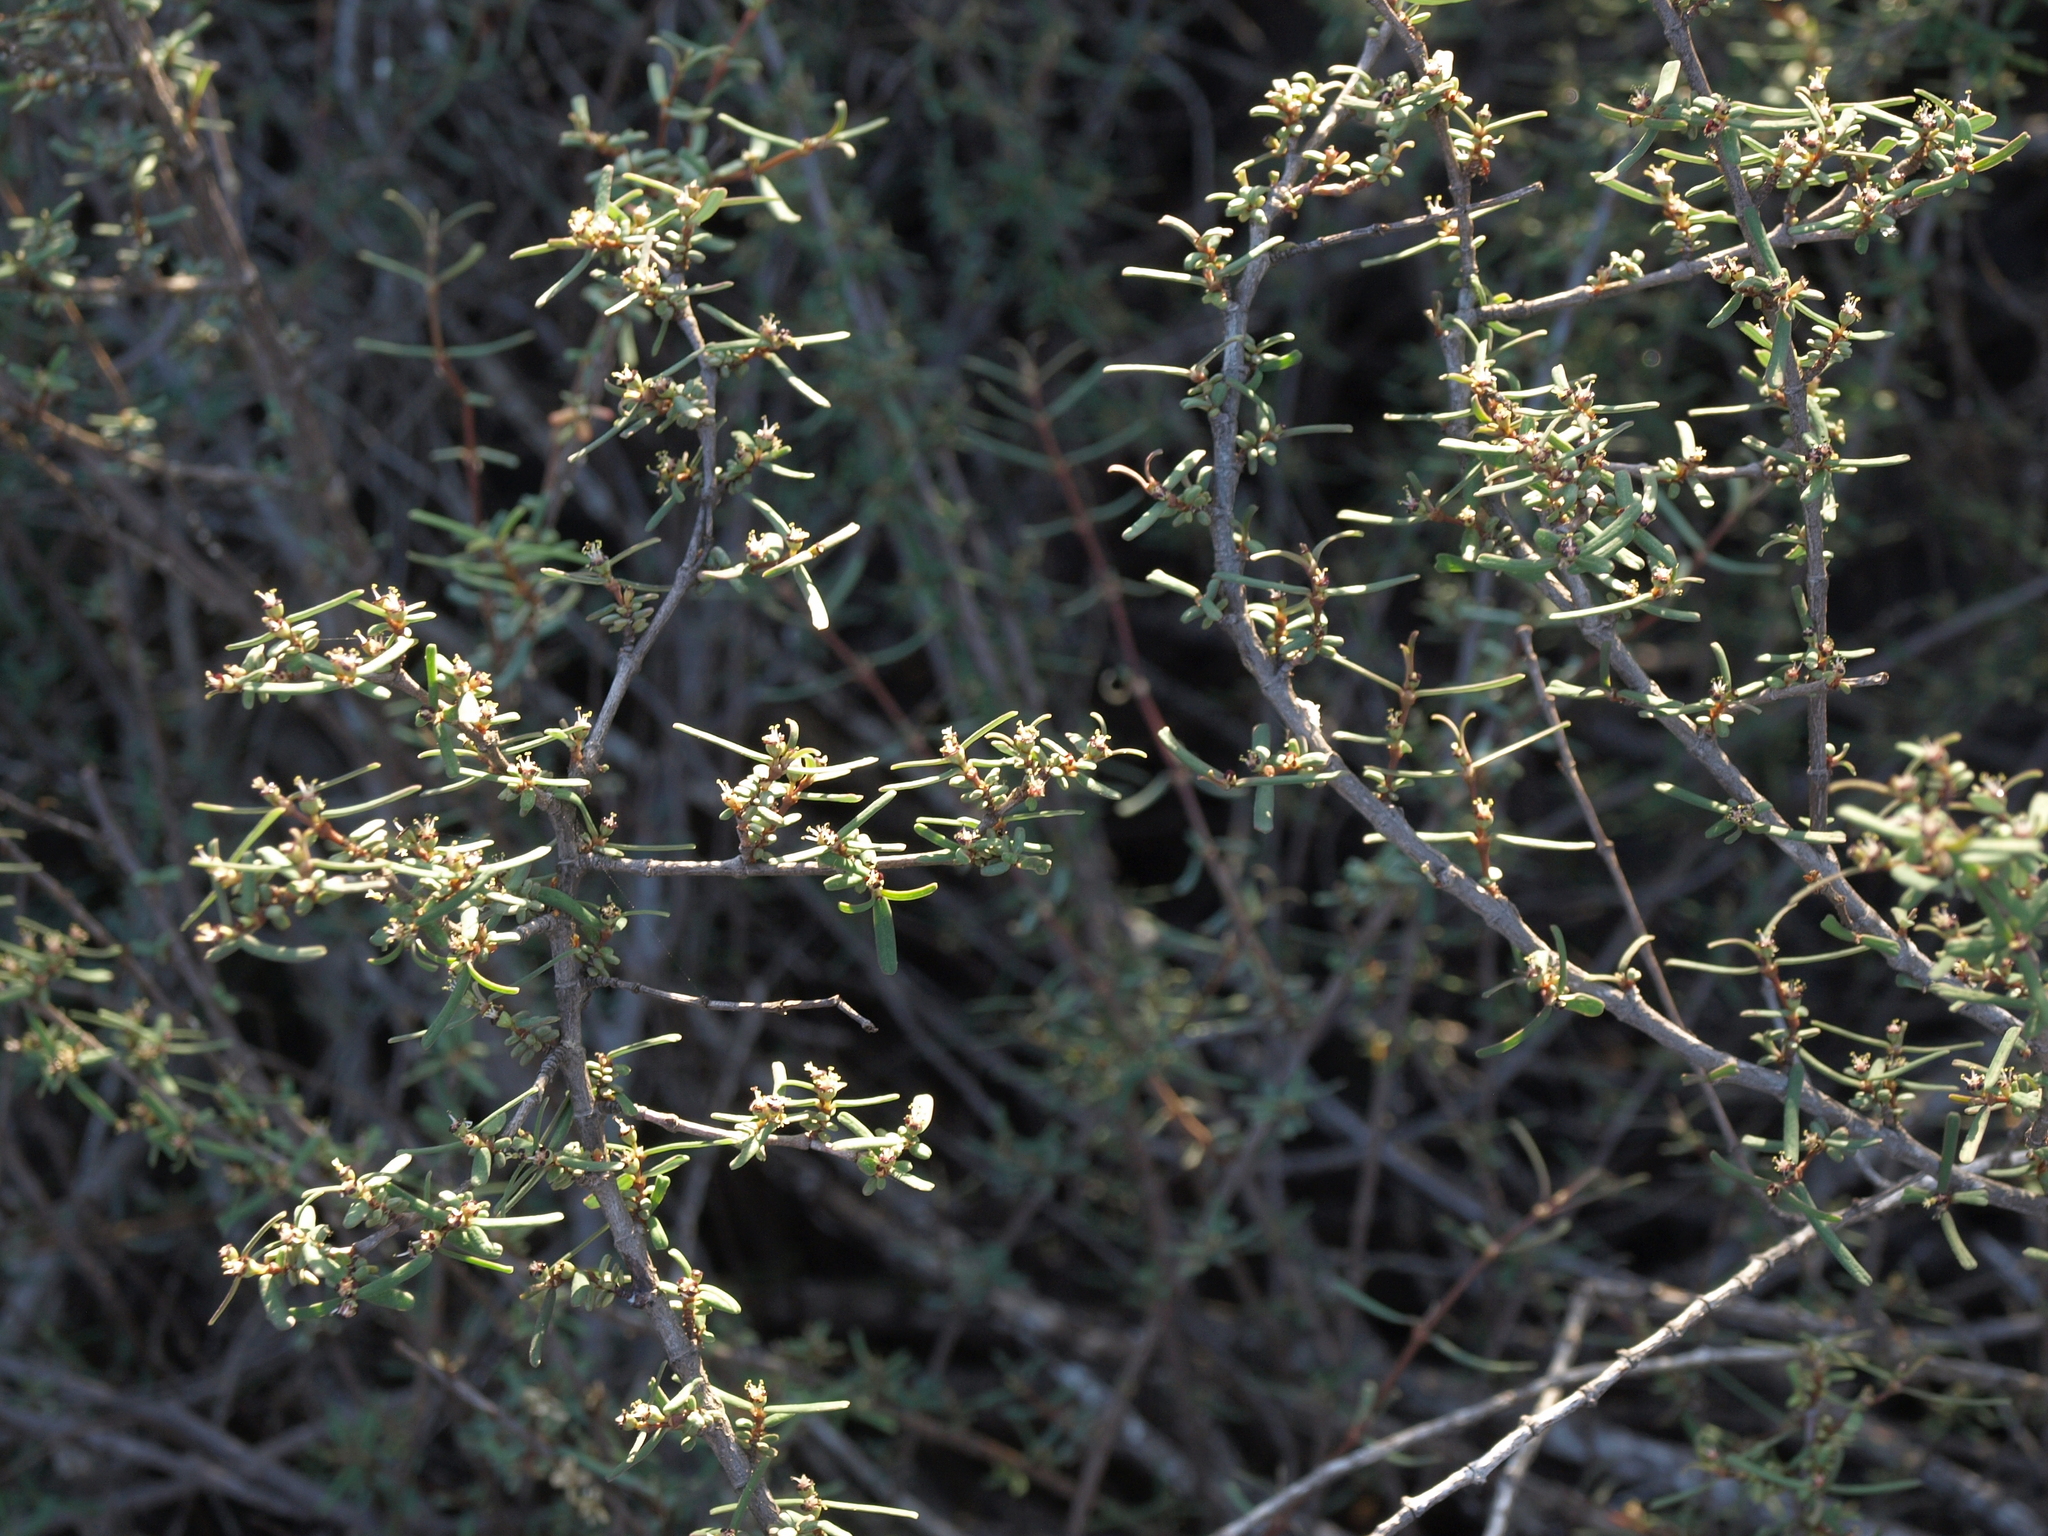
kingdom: Plantae
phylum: Tracheophyta
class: Magnoliopsida
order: Malpighiales
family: Euphorbiaceae
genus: Euphorbia
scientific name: Euphorbia viminea
